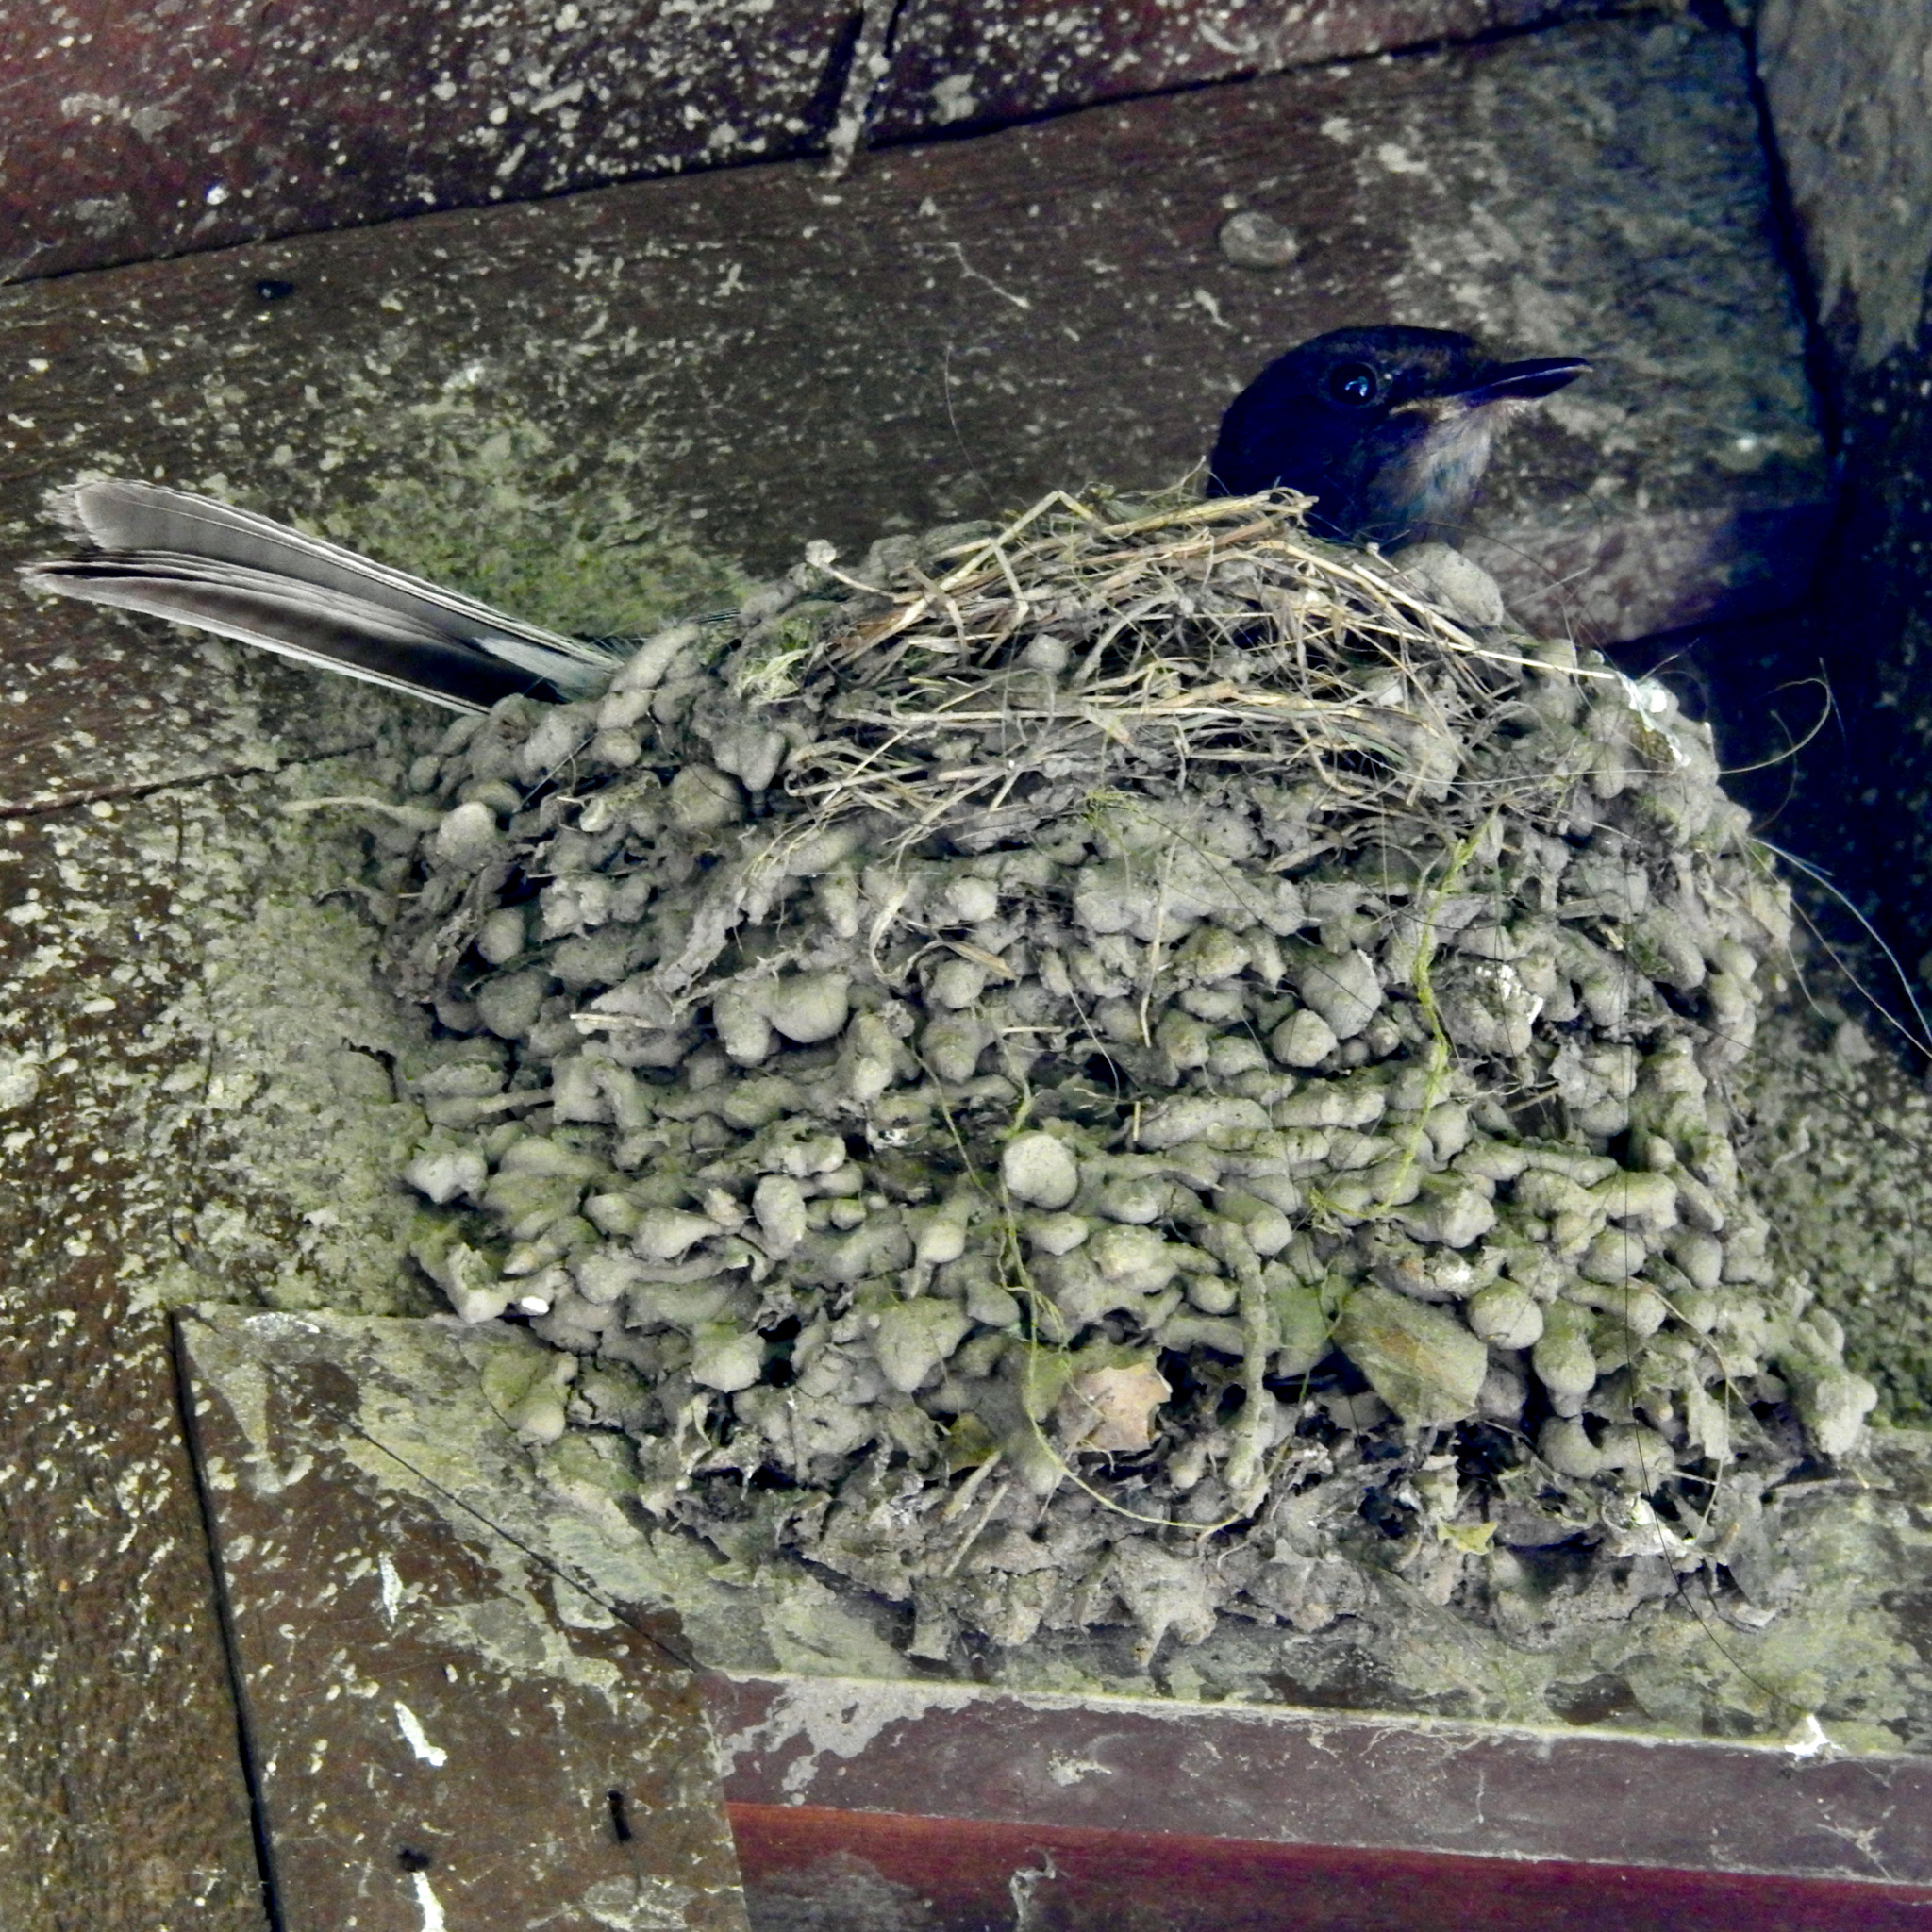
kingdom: Animalia
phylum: Chordata
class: Aves
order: Passeriformes
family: Tyrannidae
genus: Sayornis
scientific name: Sayornis nigricans
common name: Black phoebe
